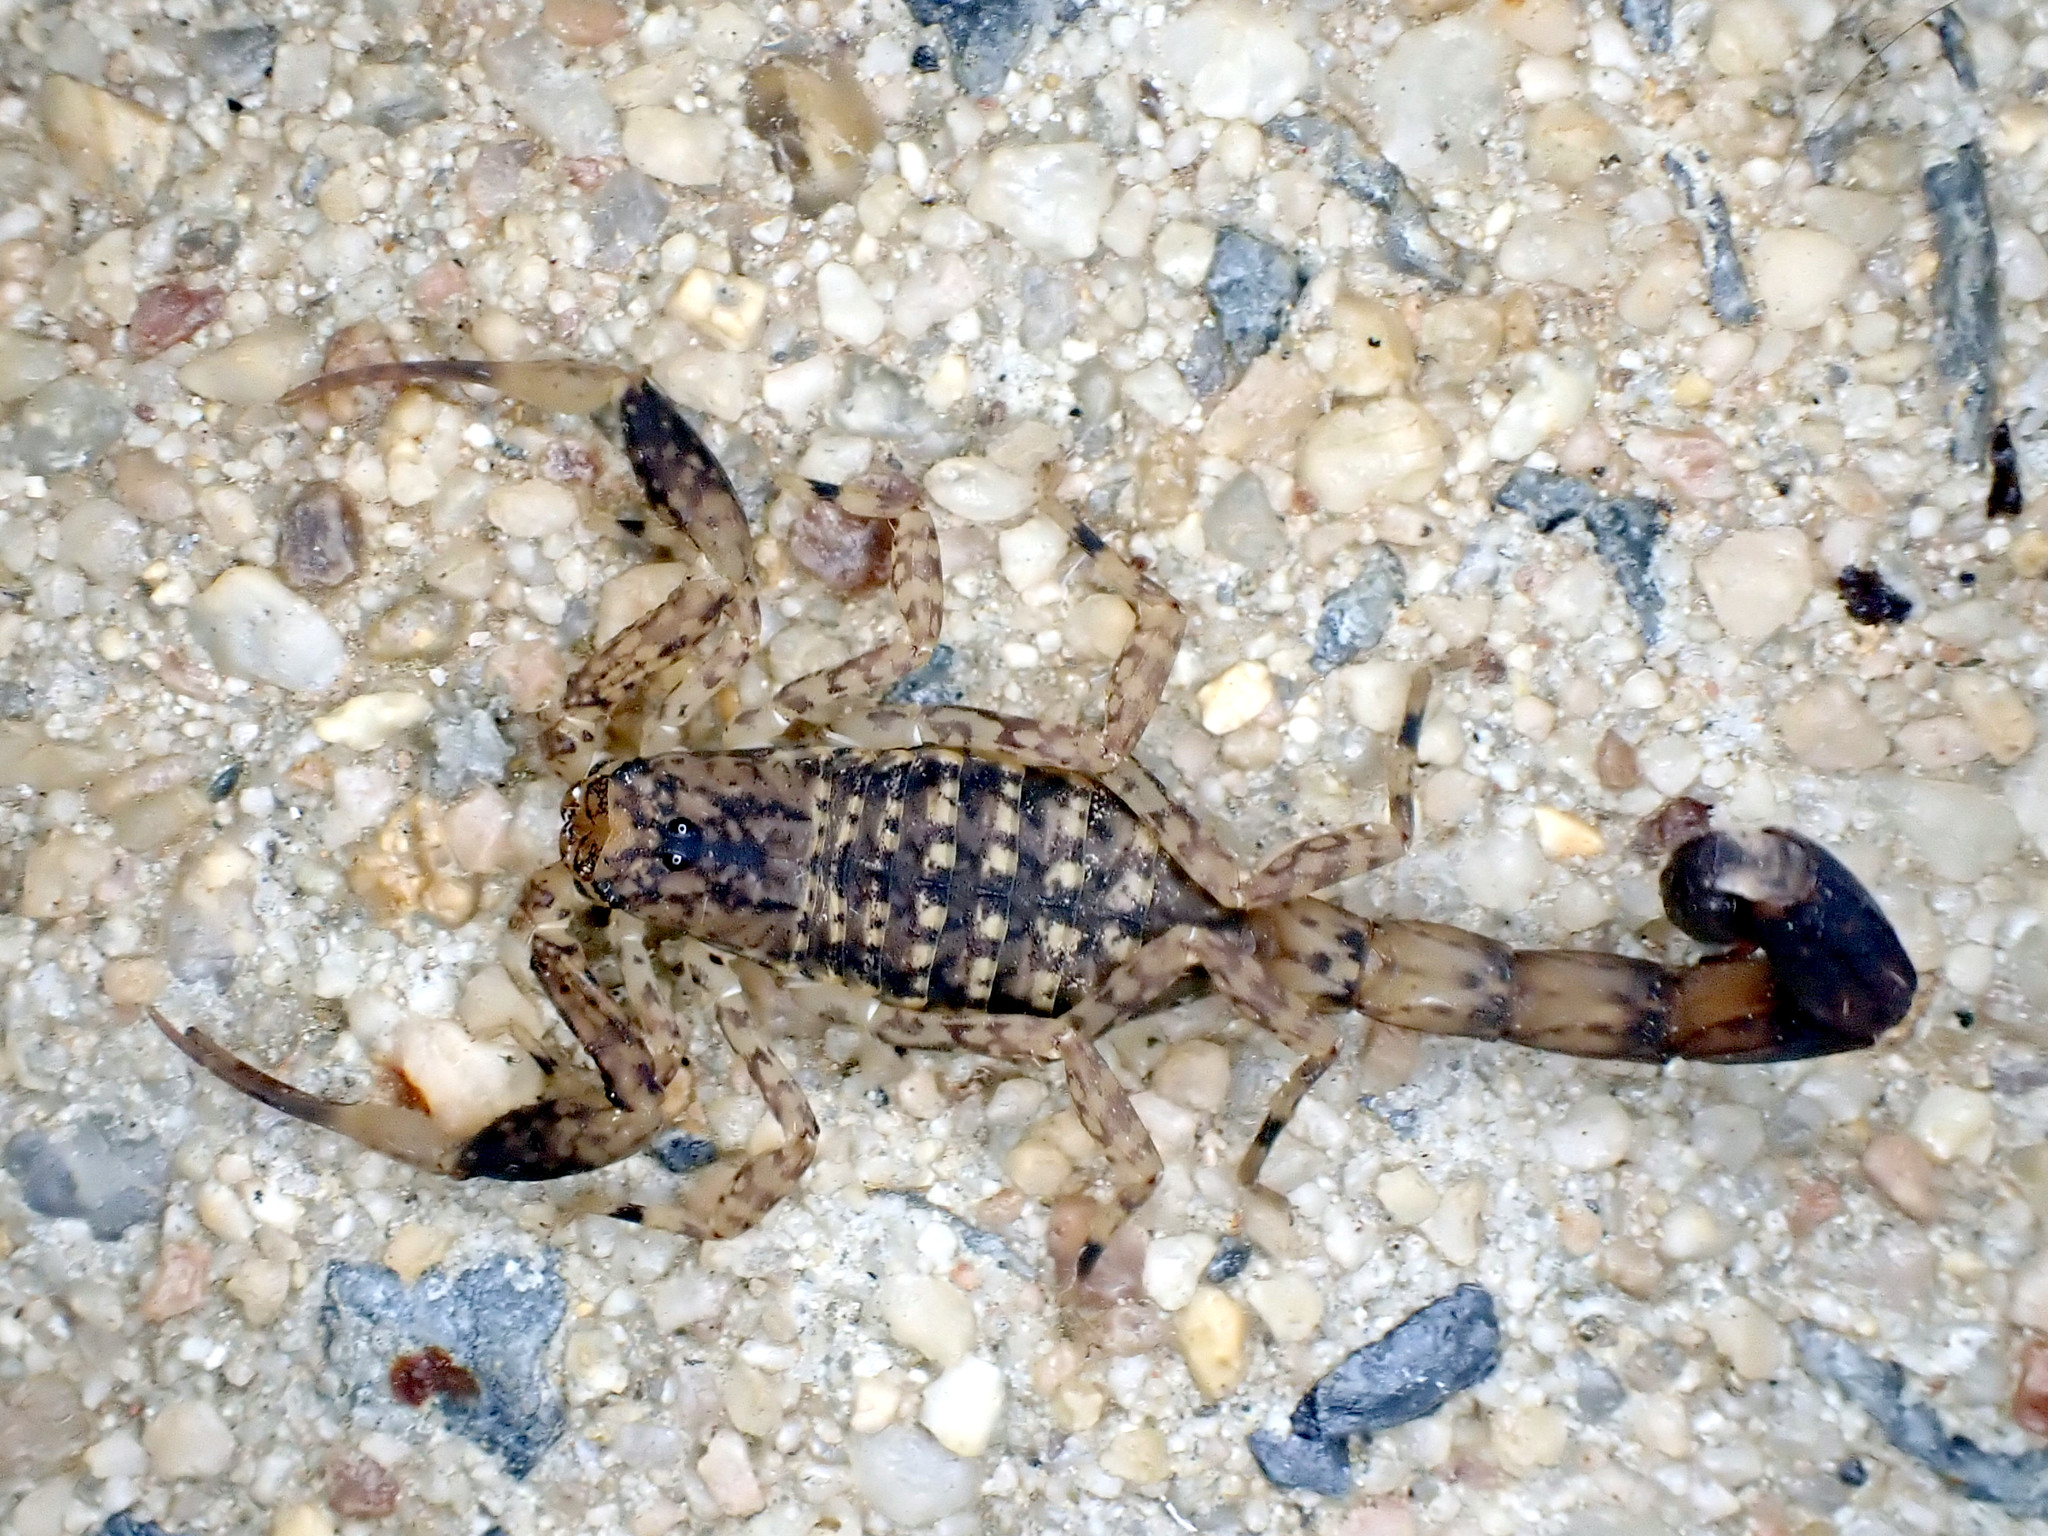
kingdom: Animalia
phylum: Arthropoda
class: Arachnida
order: Scorpiones
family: Buthidae
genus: Lychas
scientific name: Lychas variatus
